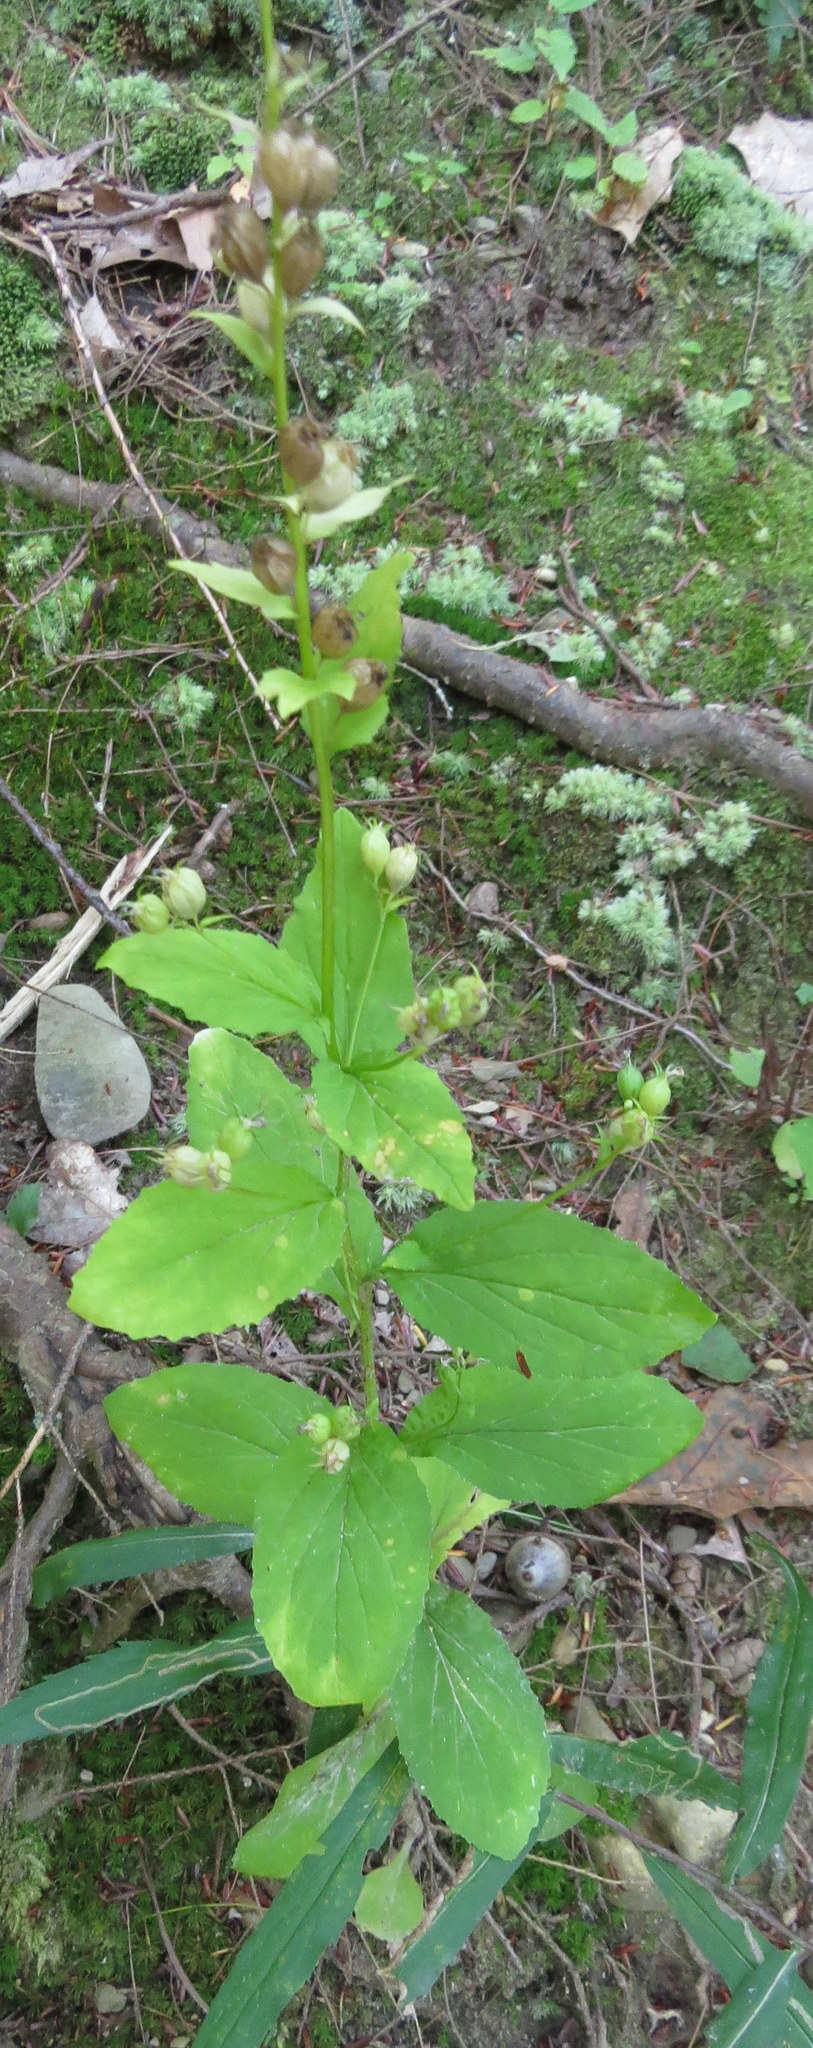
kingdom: Plantae
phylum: Tracheophyta
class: Magnoliopsida
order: Asterales
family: Campanulaceae
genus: Lobelia
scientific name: Lobelia inflata
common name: Indian tobacco
